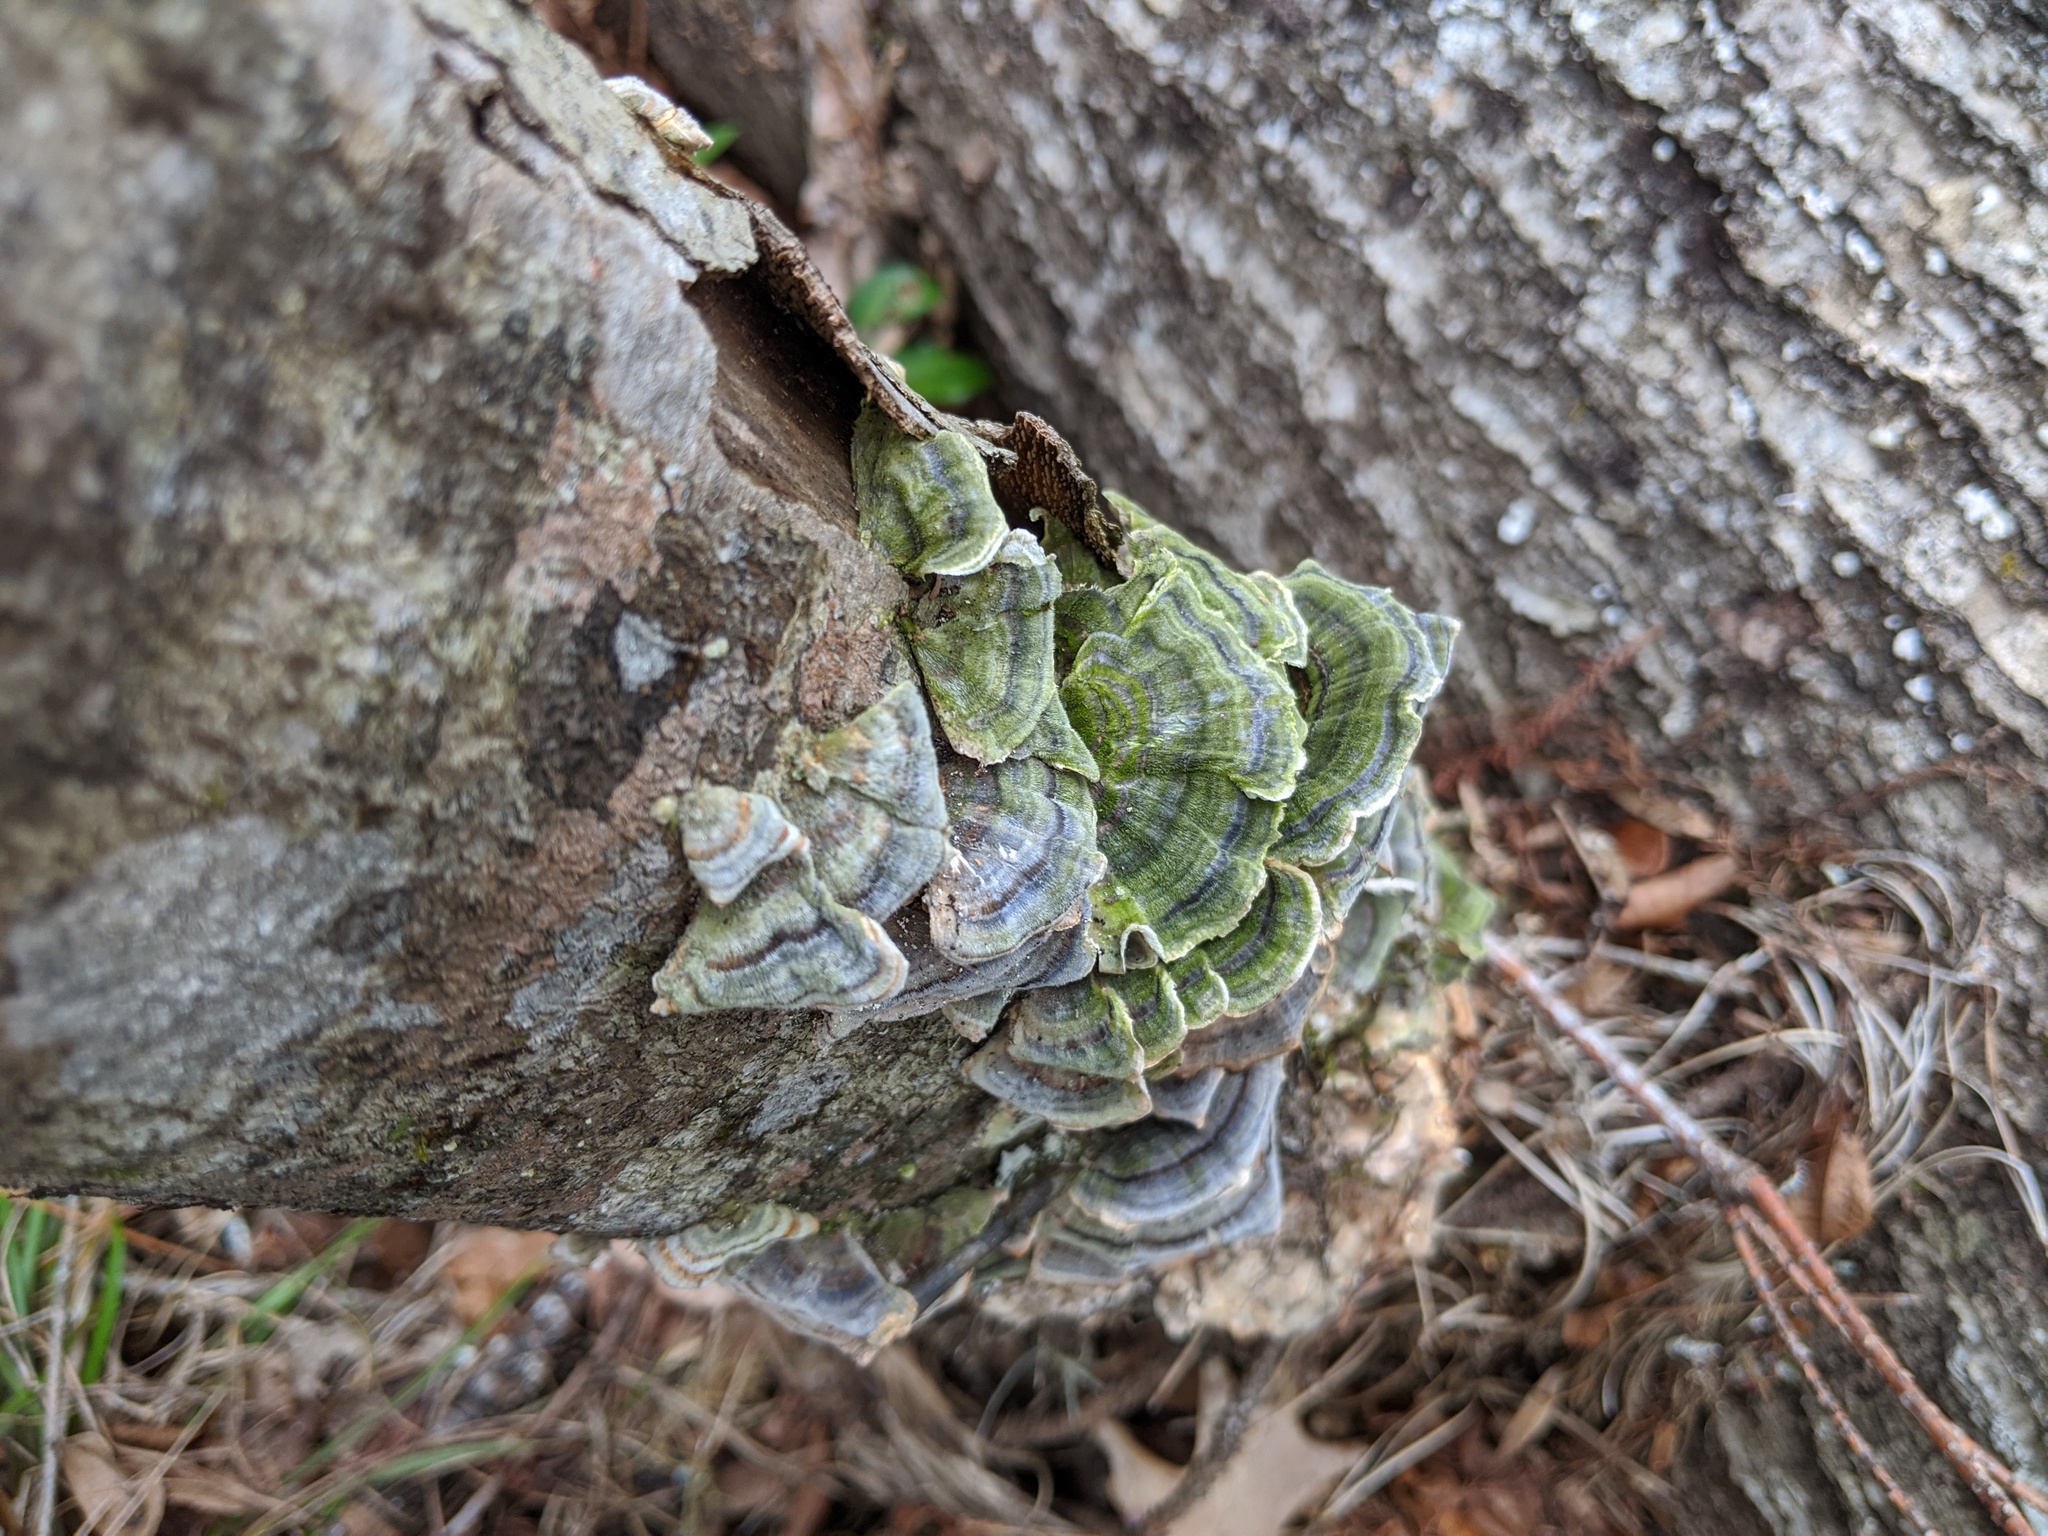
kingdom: Fungi
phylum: Basidiomycota
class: Agaricomycetes
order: Polyporales
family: Polyporaceae
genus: Trametes
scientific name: Trametes versicolor
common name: Turkeytail
